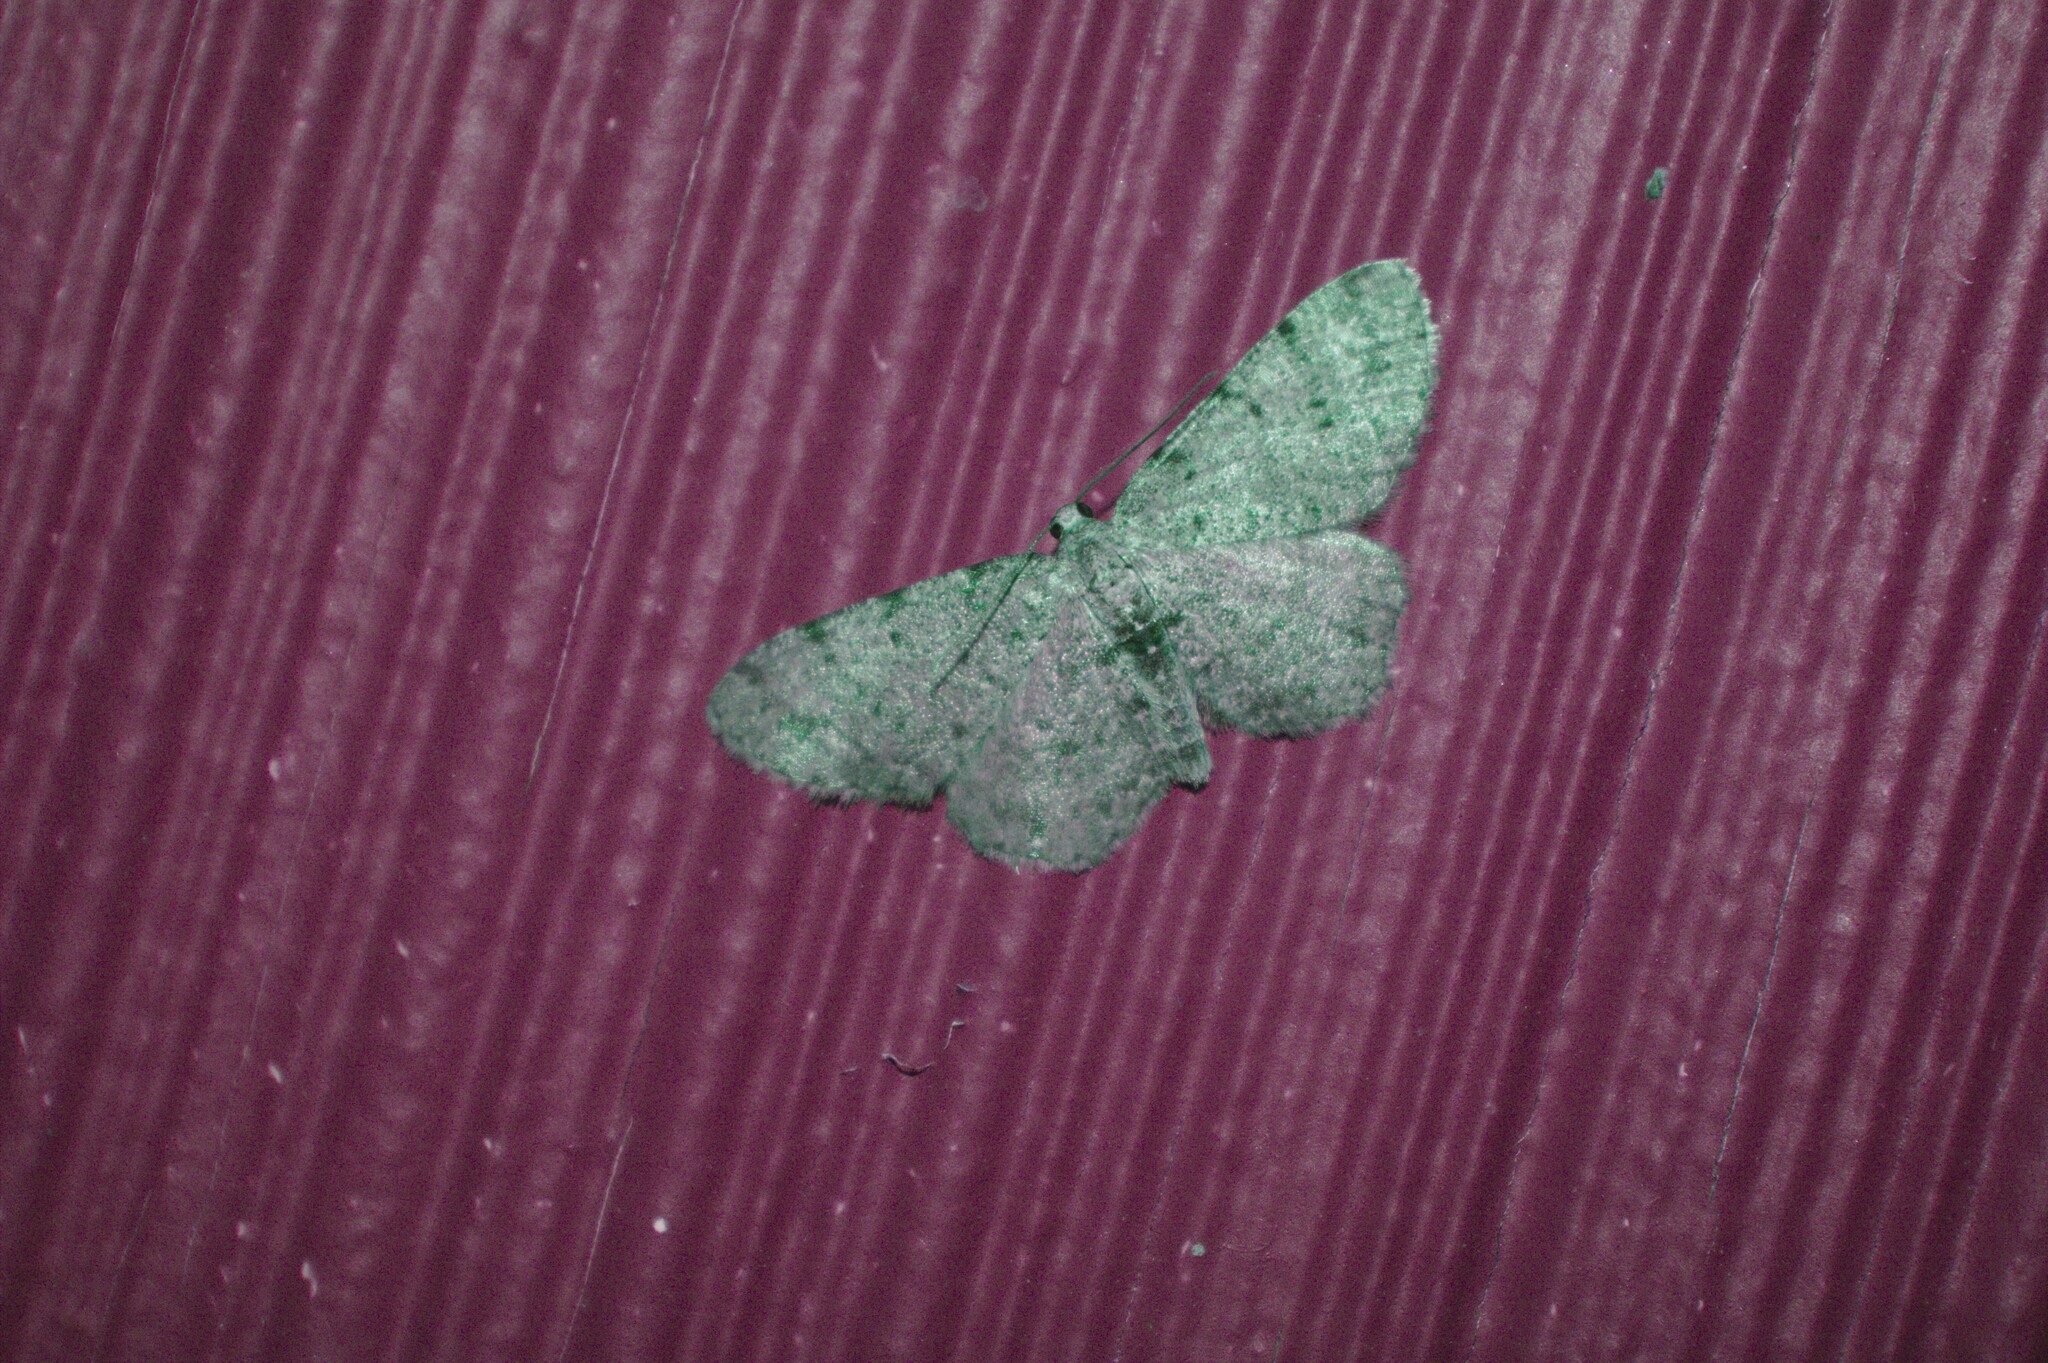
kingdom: Animalia
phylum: Arthropoda
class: Insecta
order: Lepidoptera
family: Geometridae
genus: Aethalura
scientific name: Aethalura intertexta
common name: Four-barred gray
